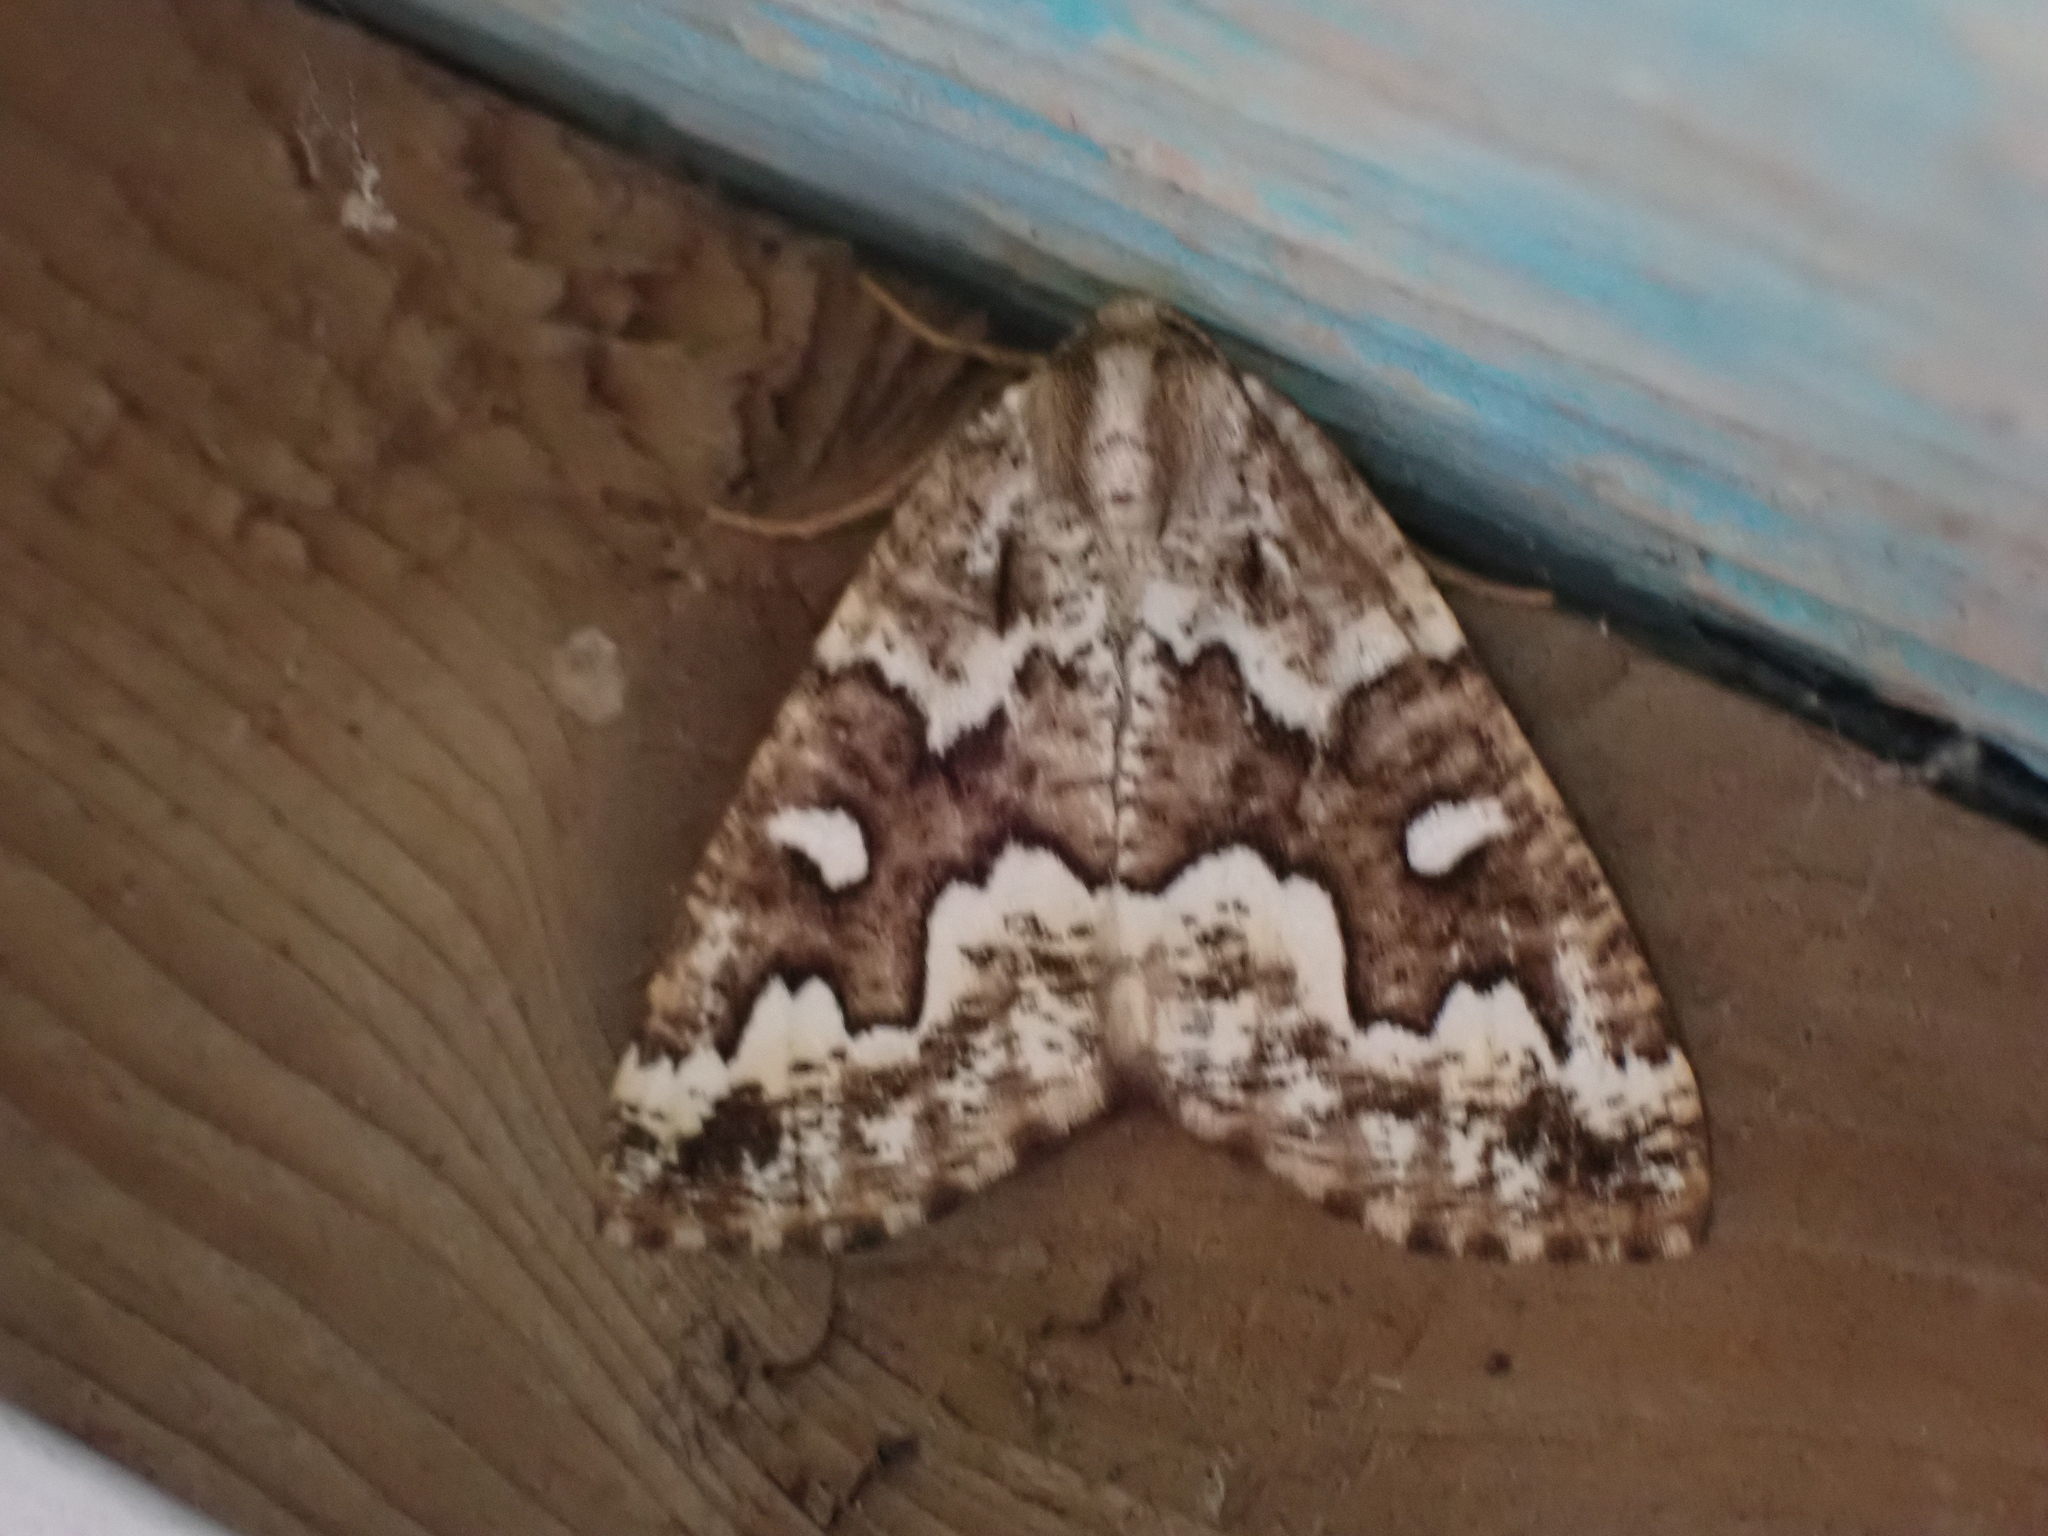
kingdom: Animalia
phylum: Arthropoda
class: Insecta
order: Lepidoptera
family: Geometridae
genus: Caripeta
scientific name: Caripeta divisata
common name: Gray spruce looper
